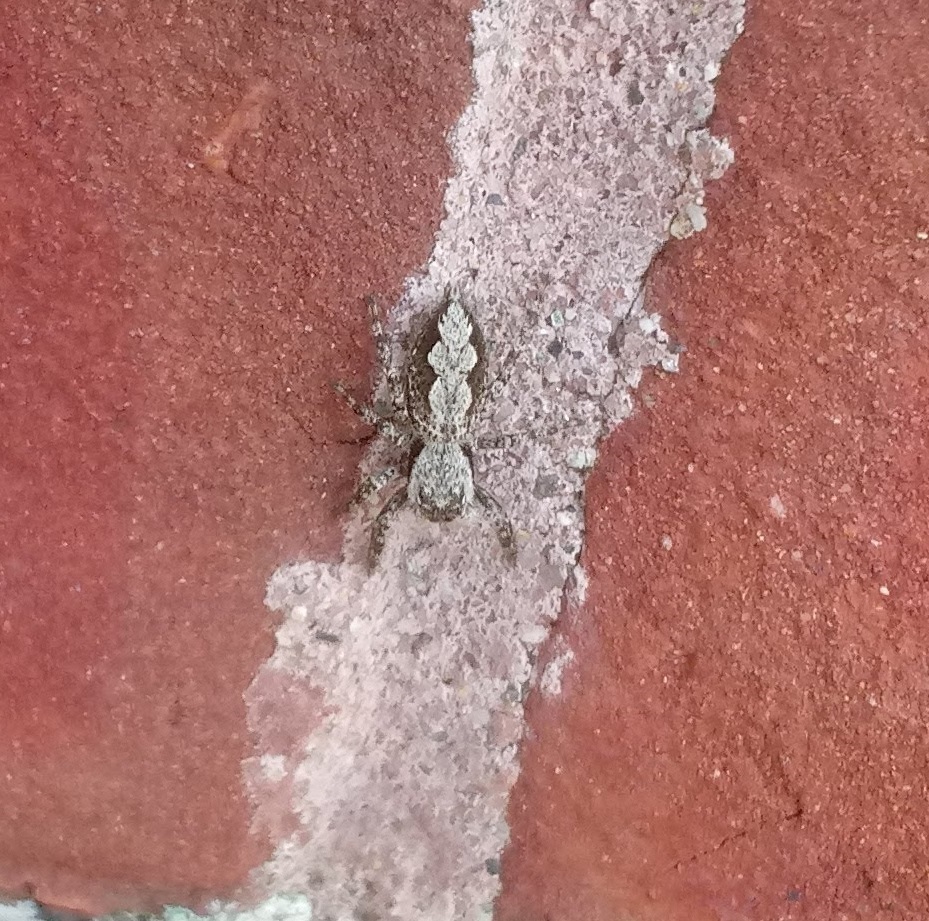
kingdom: Animalia
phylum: Arthropoda
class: Arachnida
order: Araneae
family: Salticidae
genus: Platycryptus
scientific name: Platycryptus undatus
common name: Tan jumping spider
